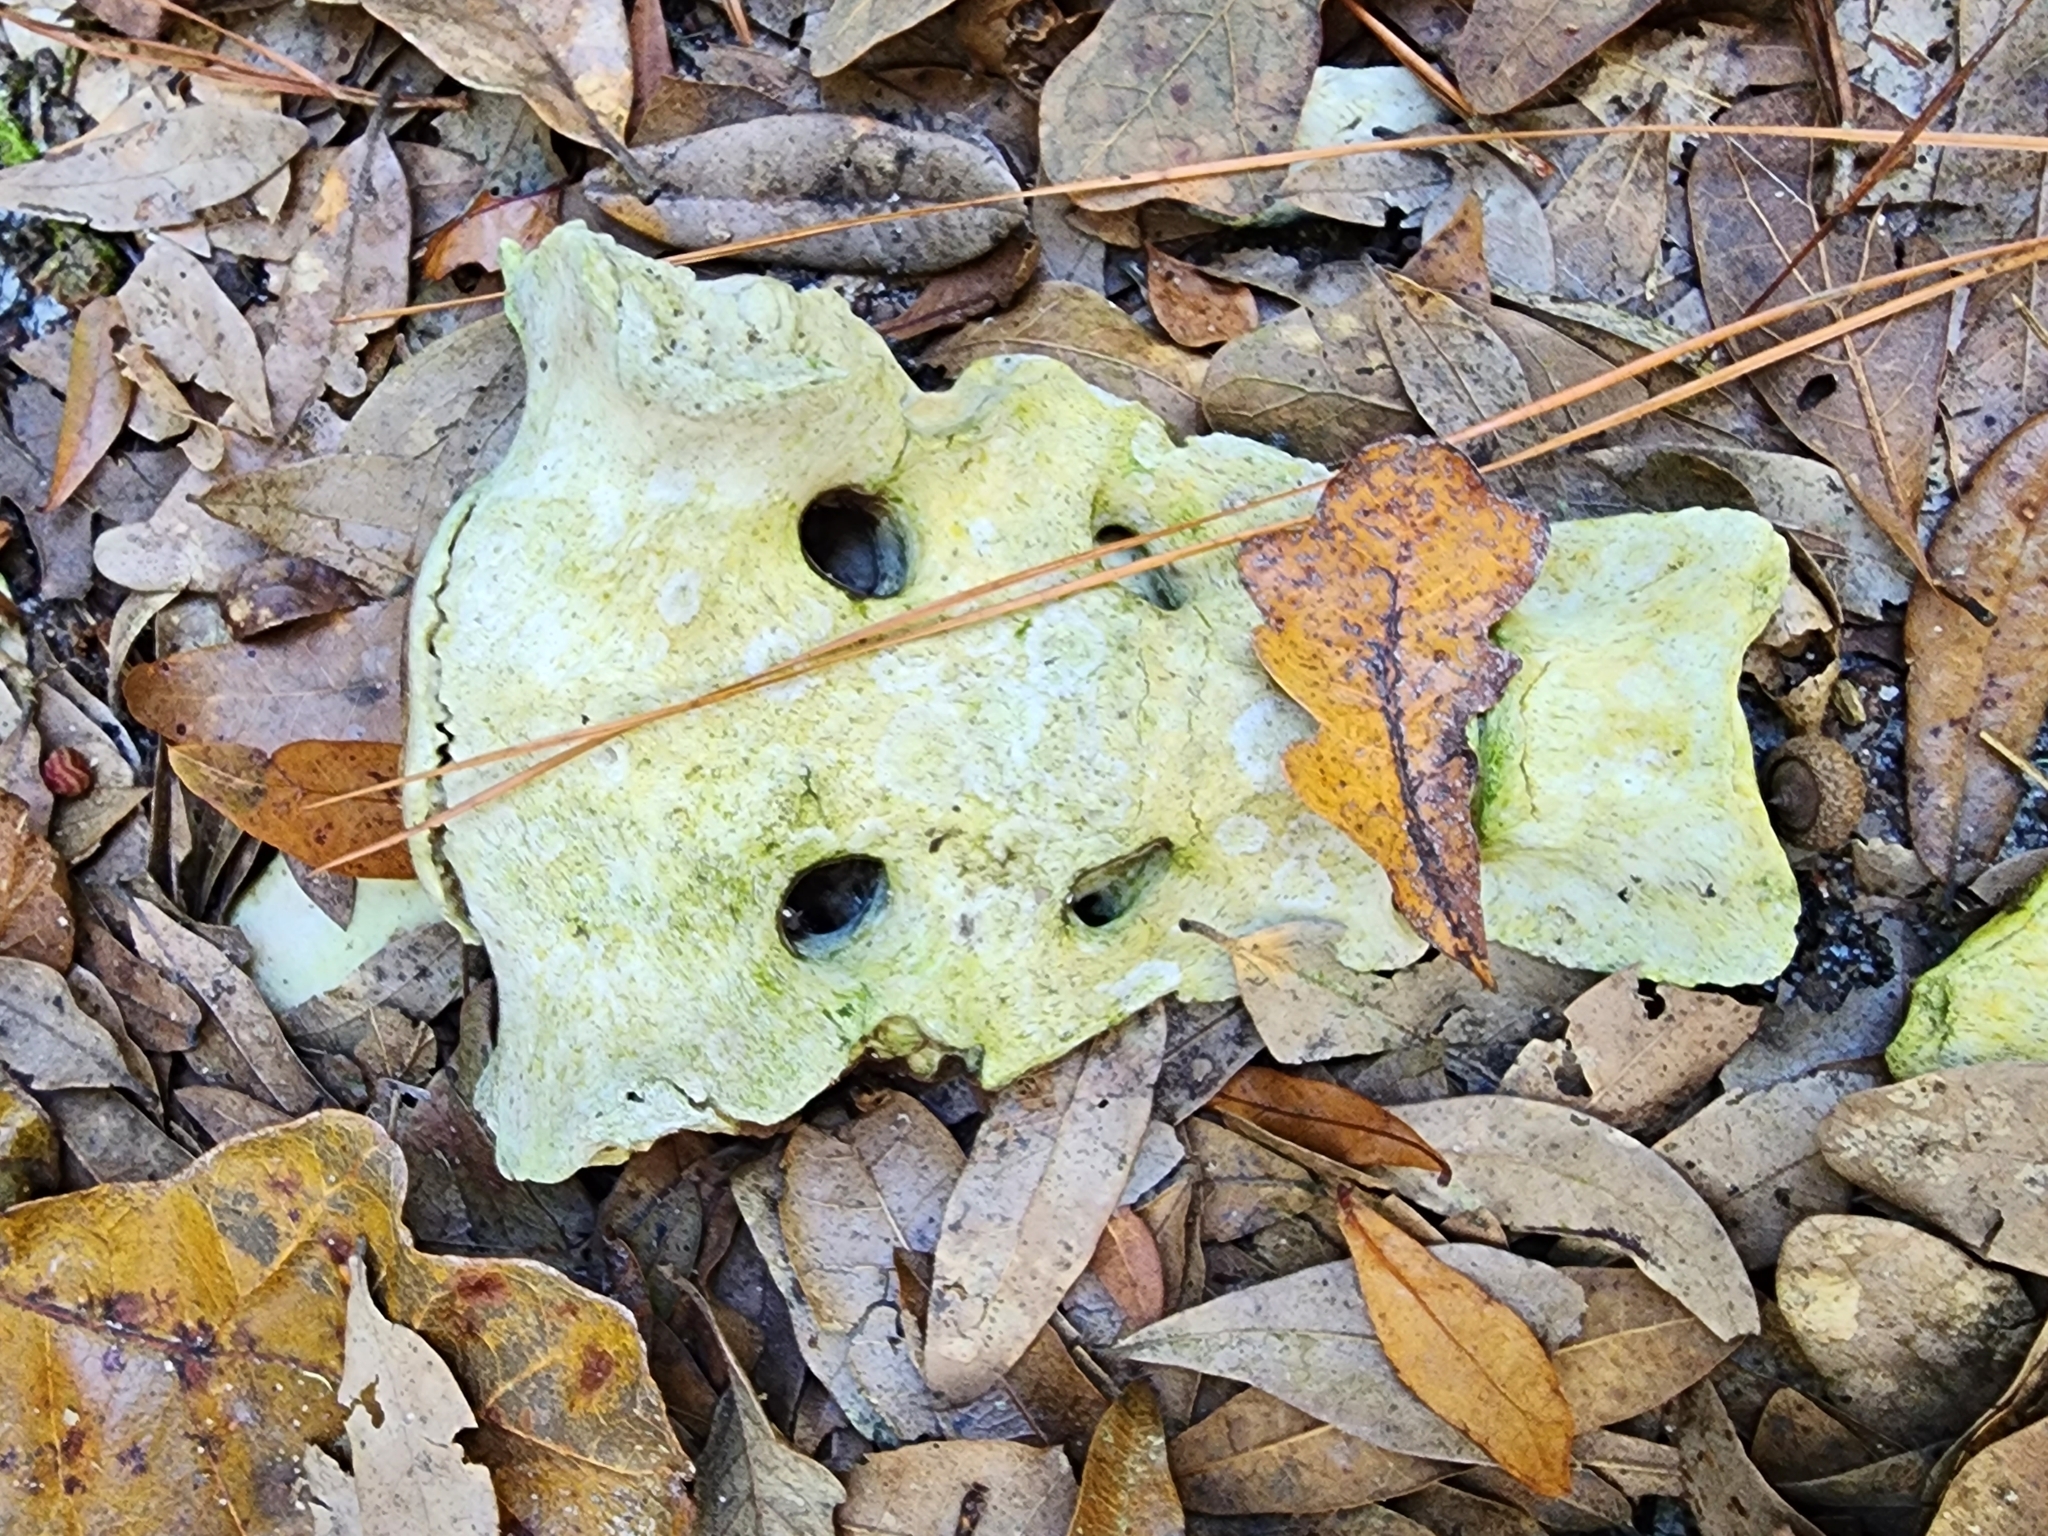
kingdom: Animalia
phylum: Chordata
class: Mammalia
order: Carnivora
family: Ursidae
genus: Ursus
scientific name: Ursus americanus
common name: American black bear
